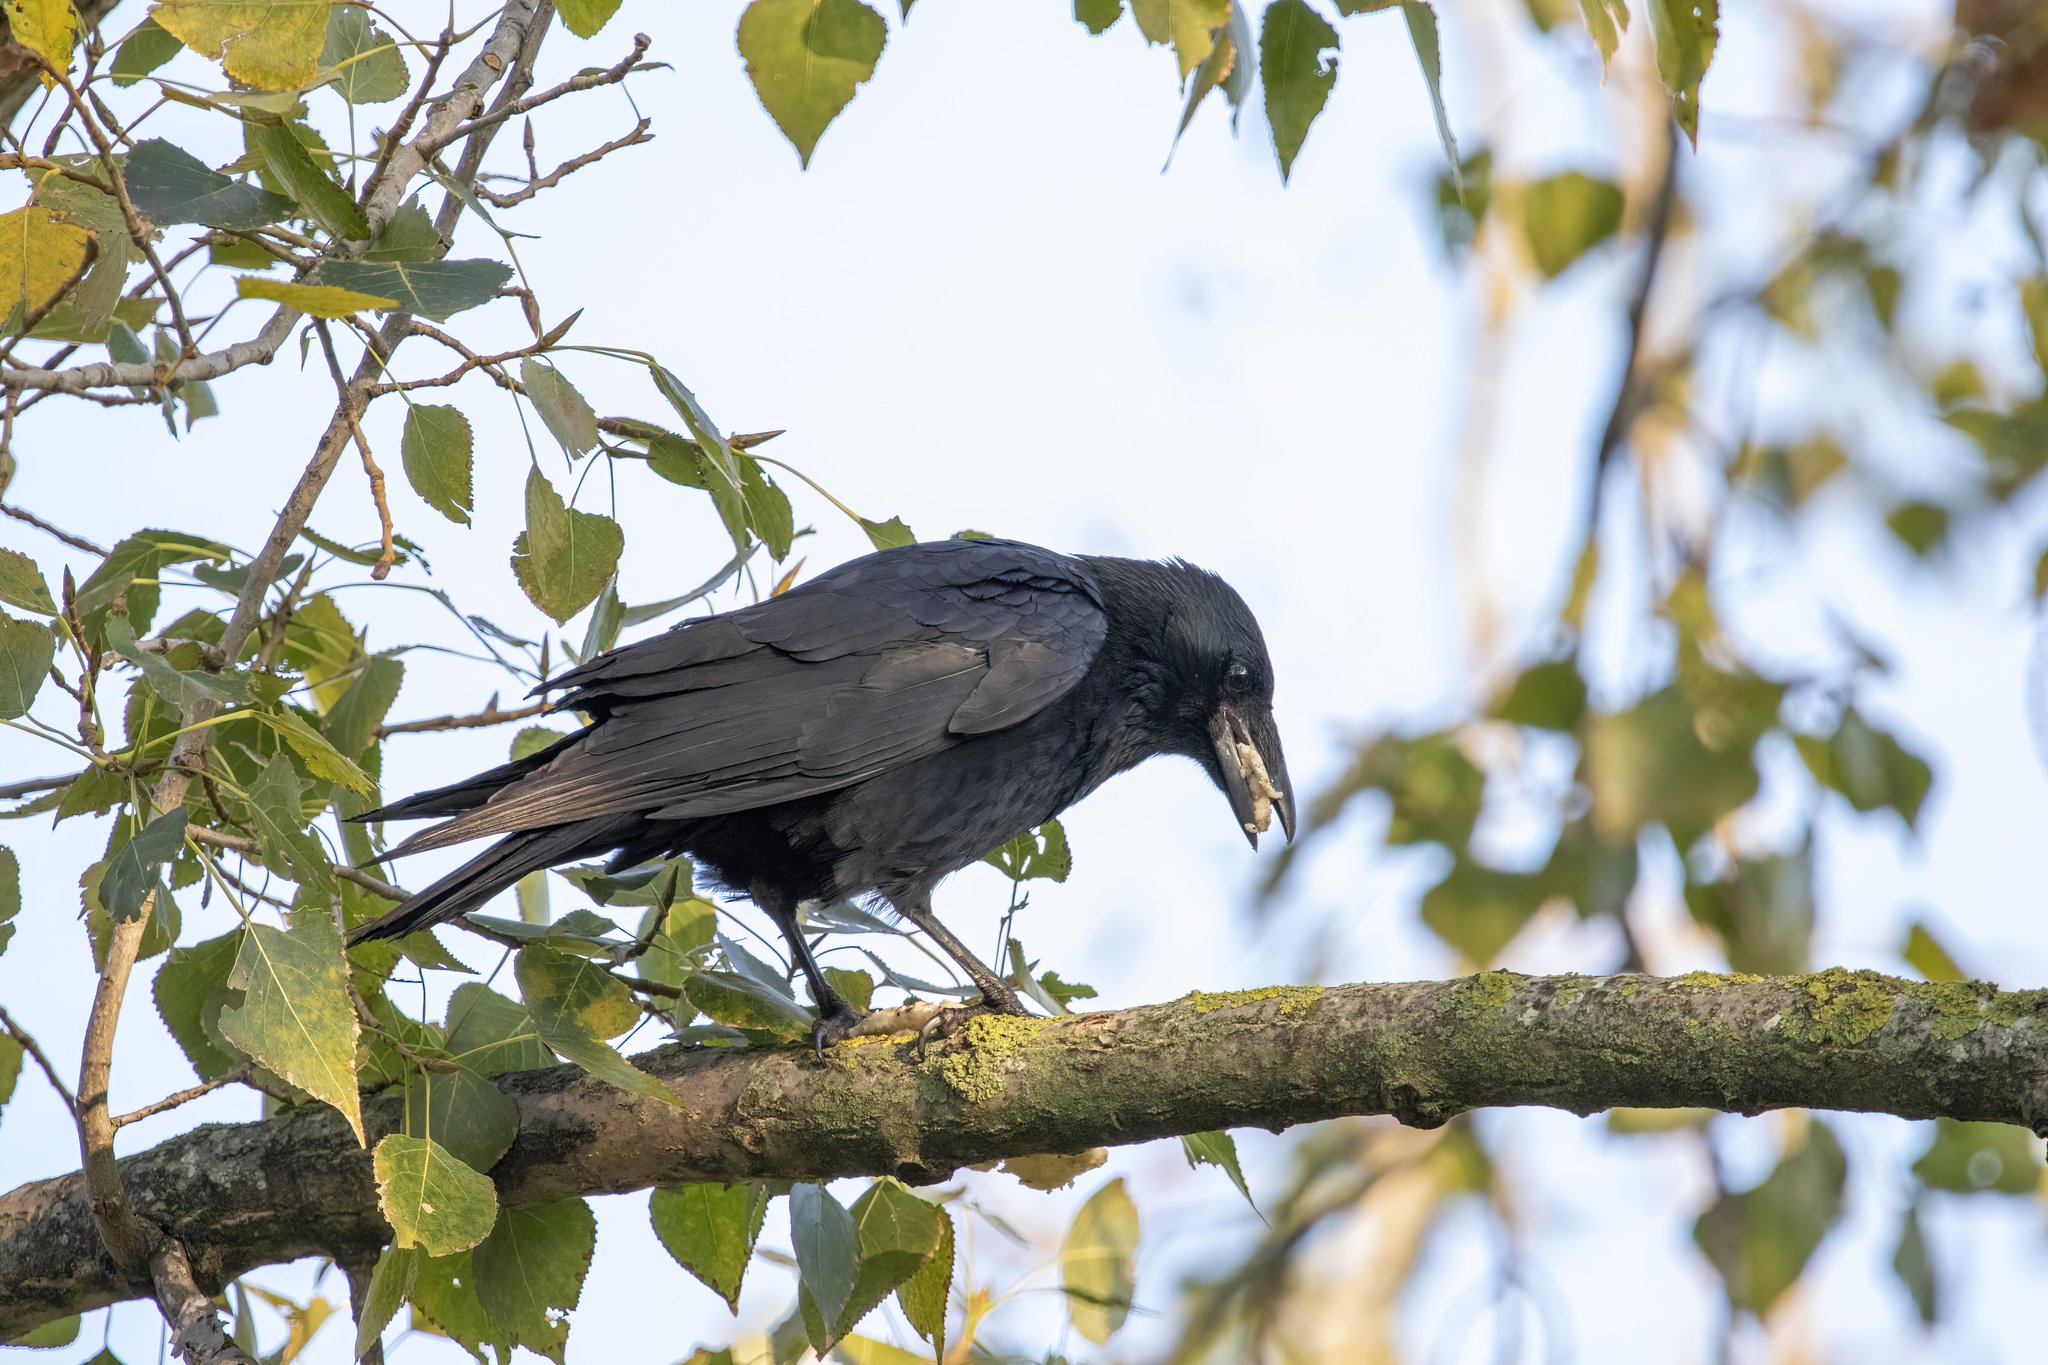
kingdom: Animalia
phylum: Chordata
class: Aves
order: Passeriformes
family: Corvidae
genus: Corvus
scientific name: Corvus corone
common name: Carrion crow
